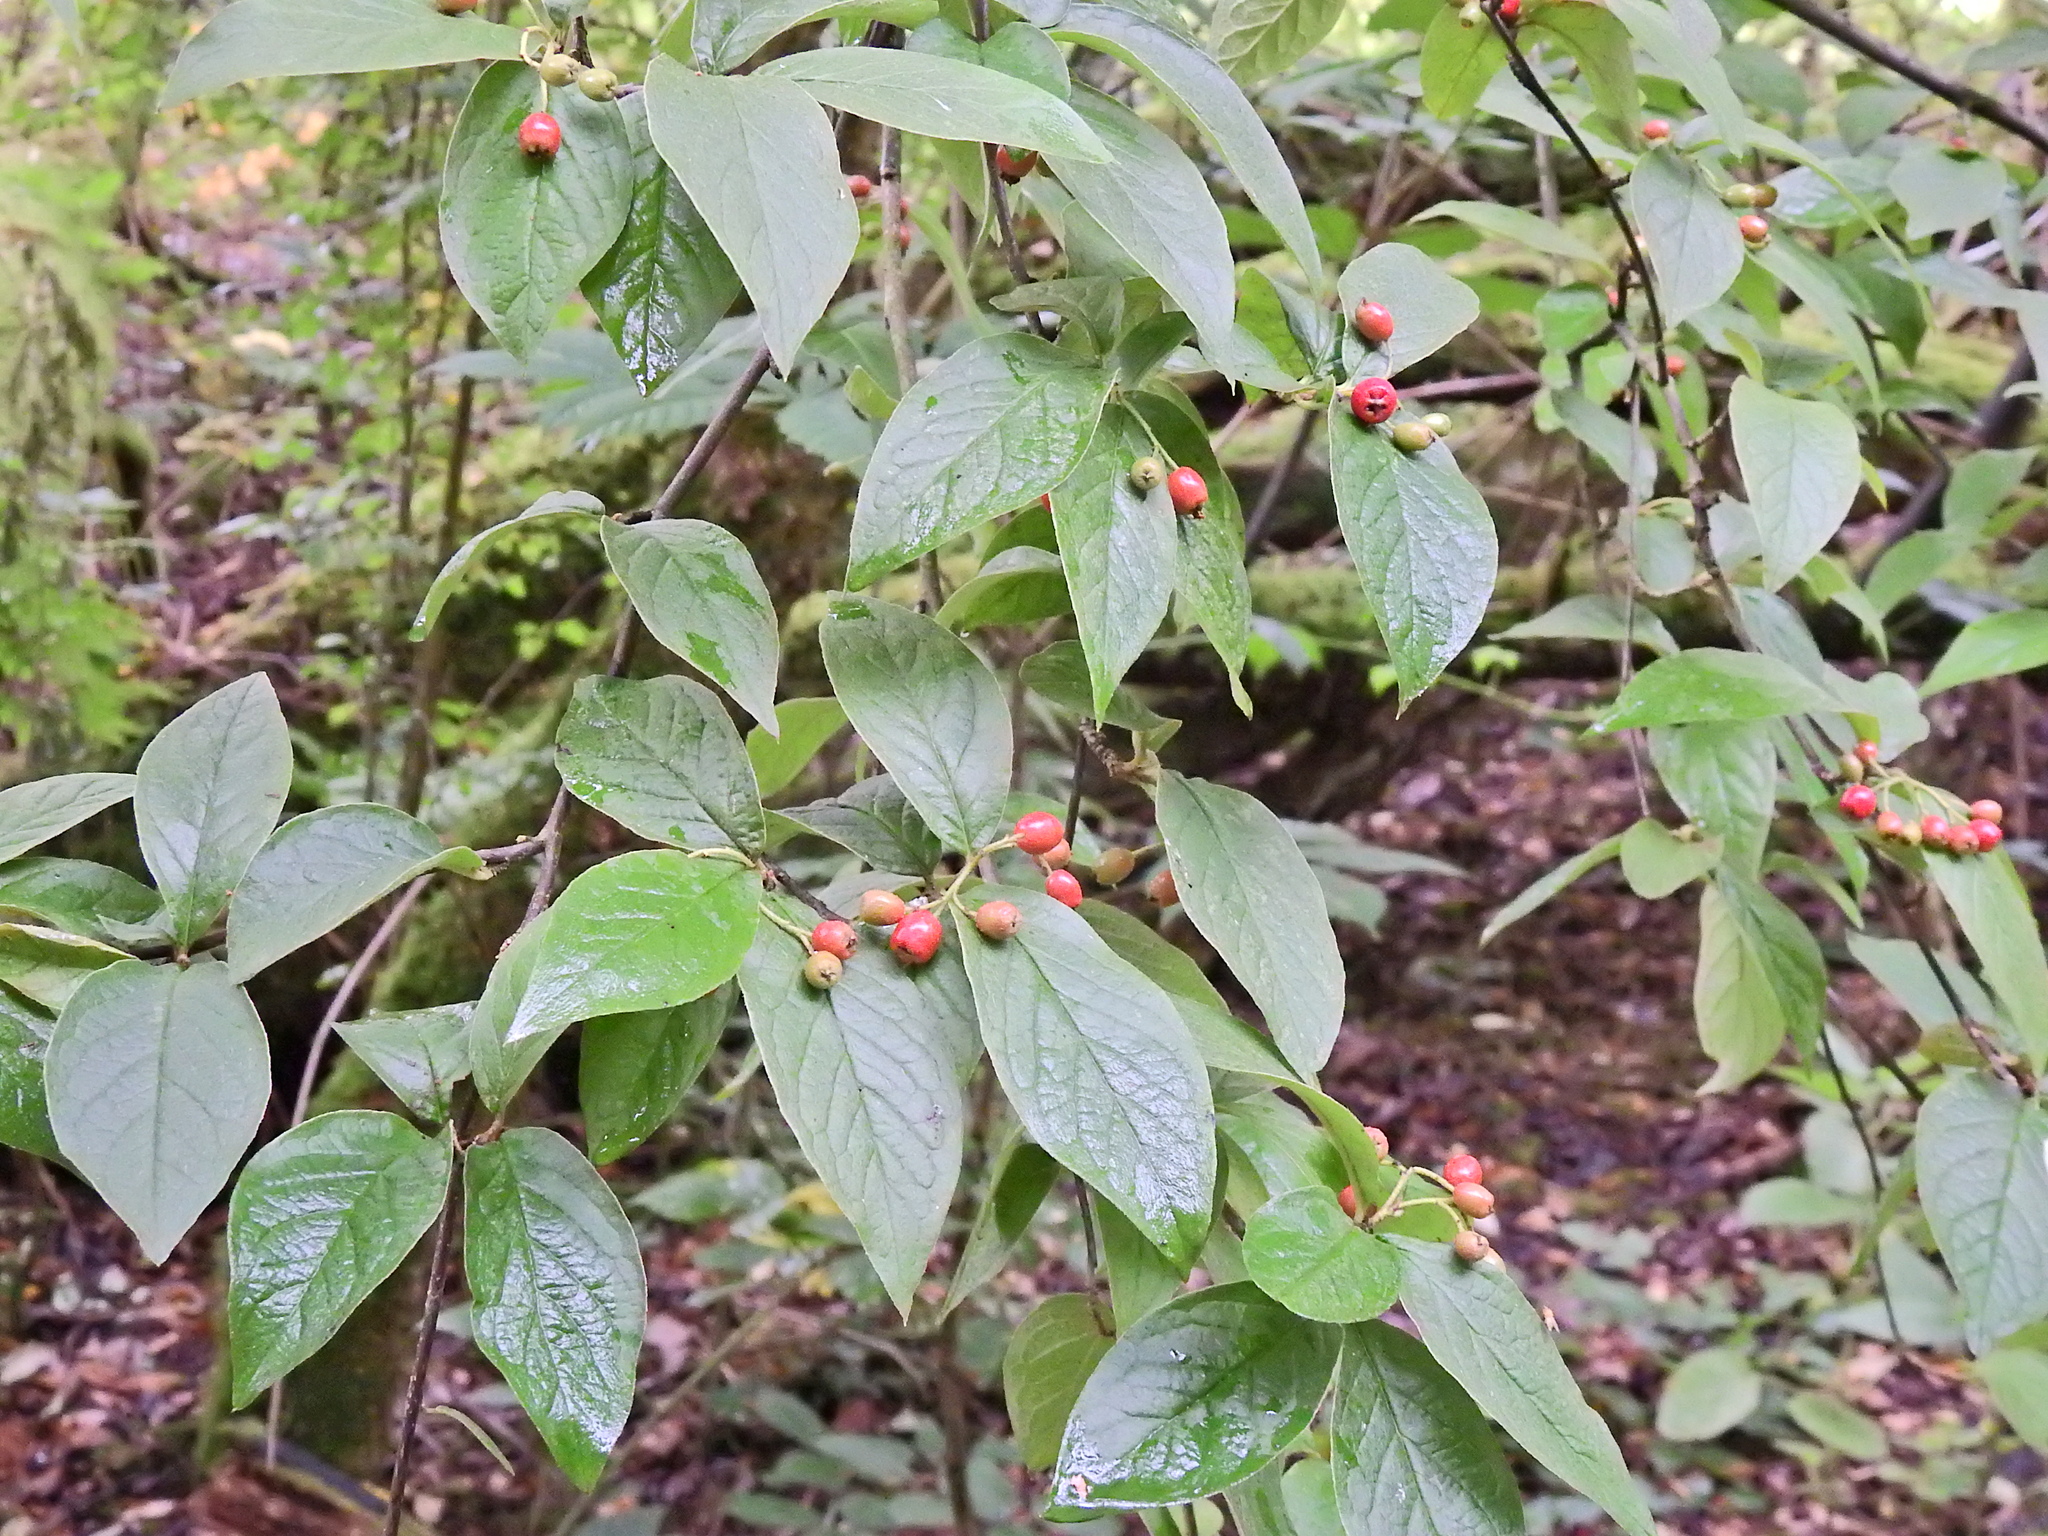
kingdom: Plantae
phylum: Tracheophyta
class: Magnoliopsida
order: Rosales
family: Rosaceae
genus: Cotoneaster
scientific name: Cotoneaster bullatus
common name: Hollyberry cotoneaster
